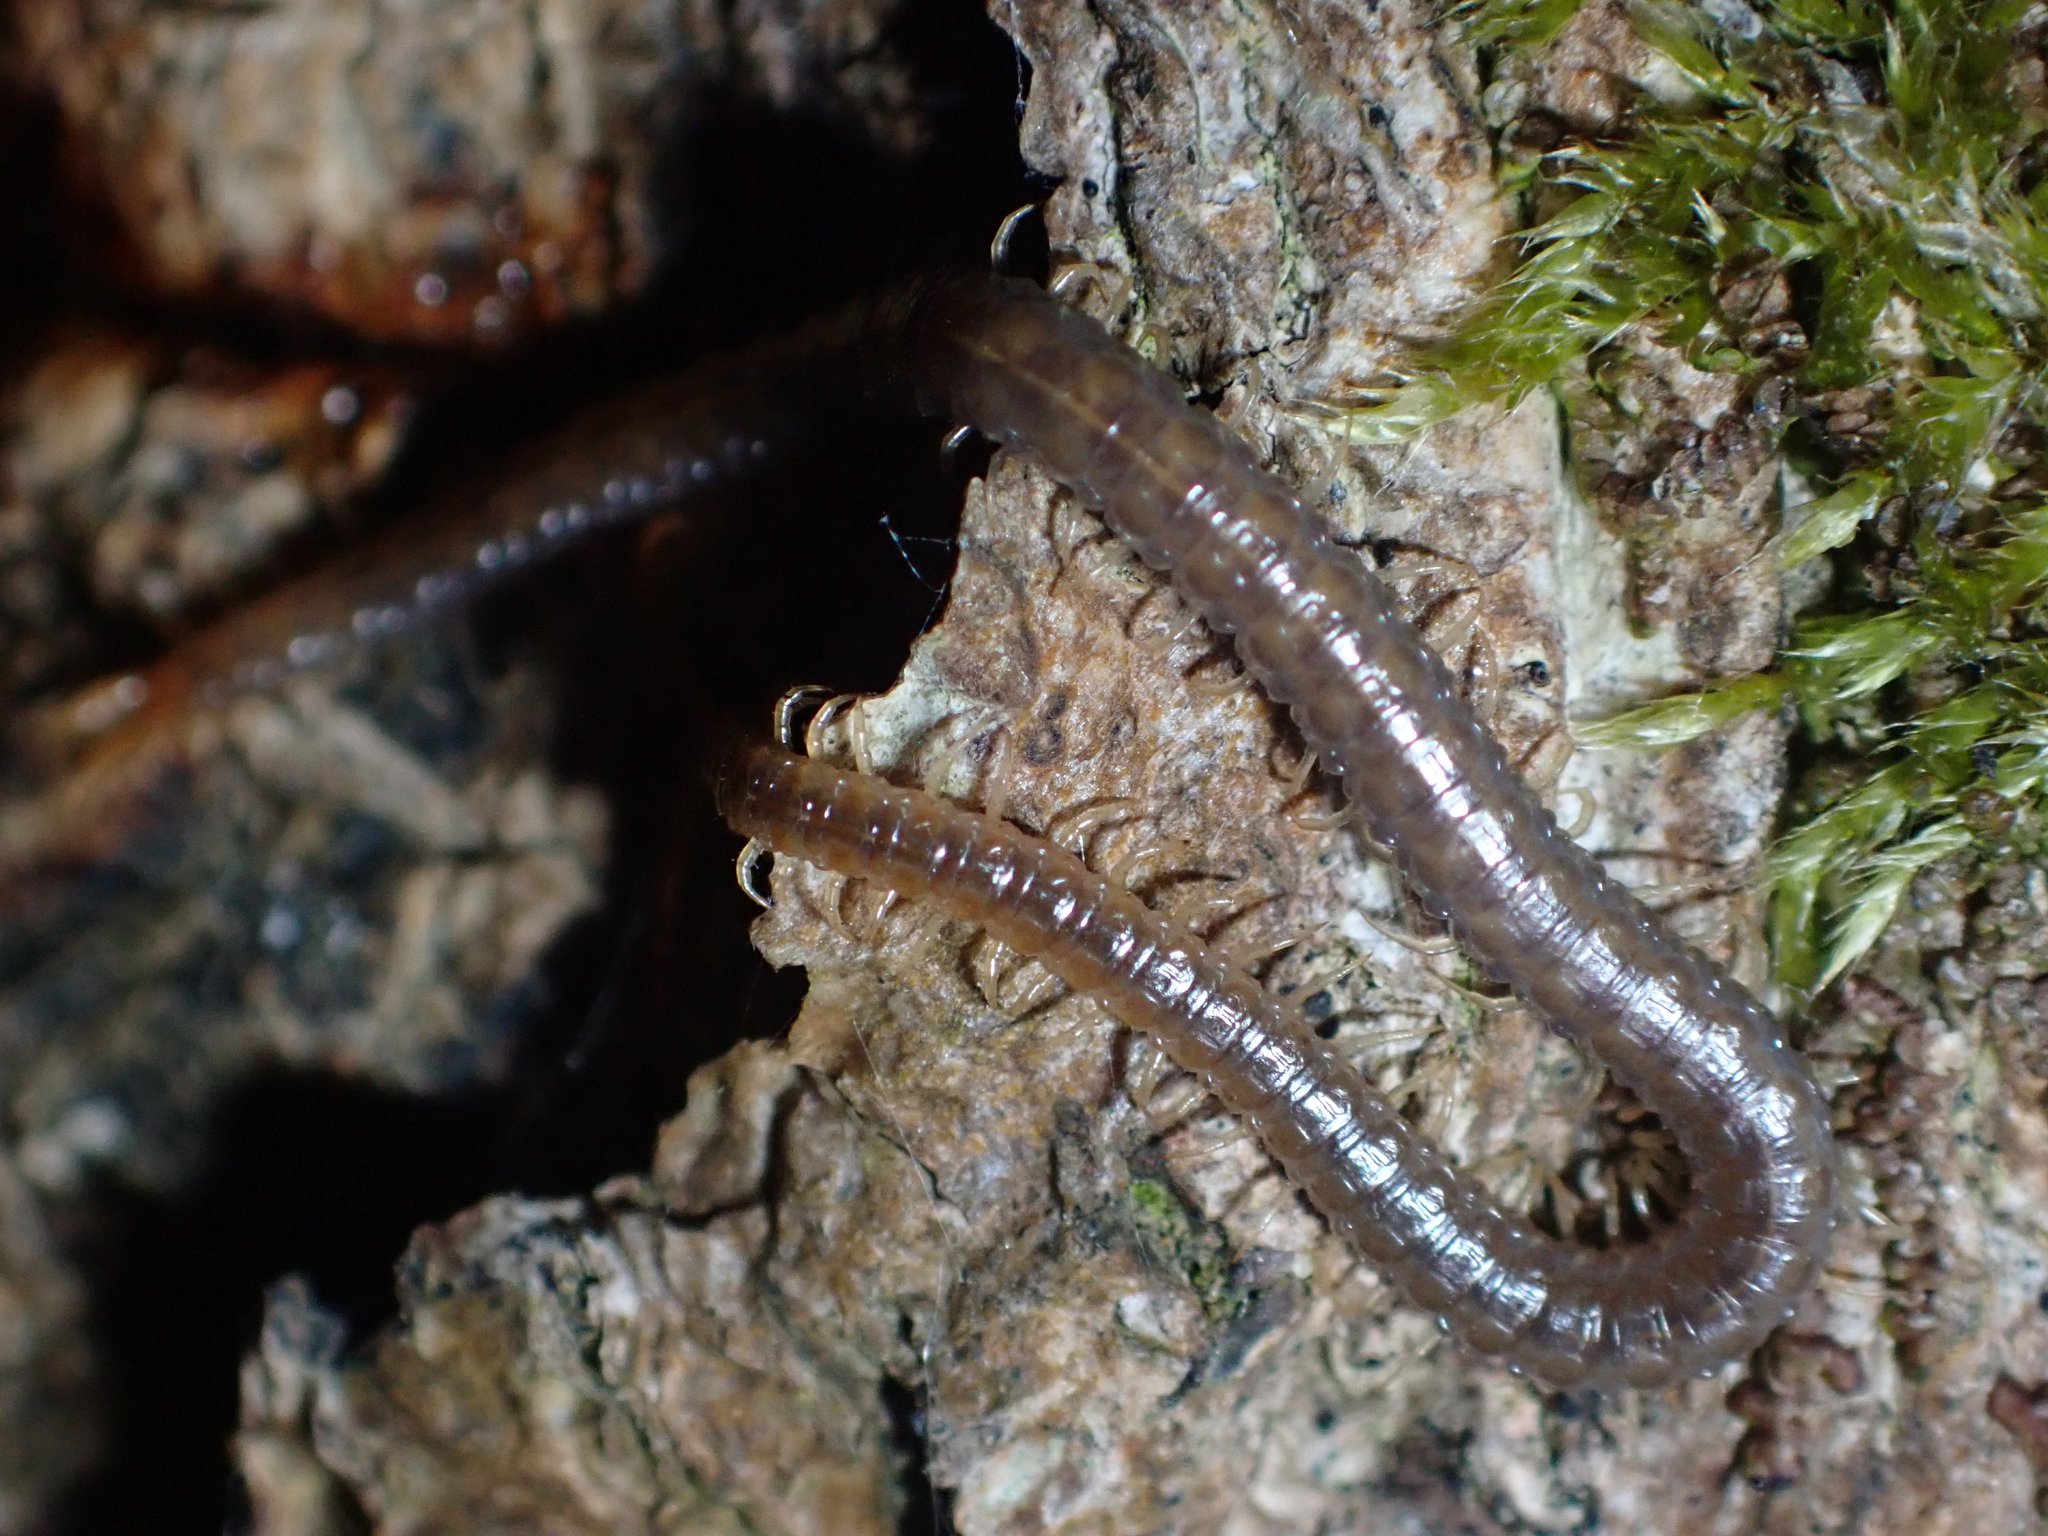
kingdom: Animalia
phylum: Arthropoda
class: Chilopoda
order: Geophilomorpha
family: Geophilidae
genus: Geophilus
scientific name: Geophilus carpophagus
